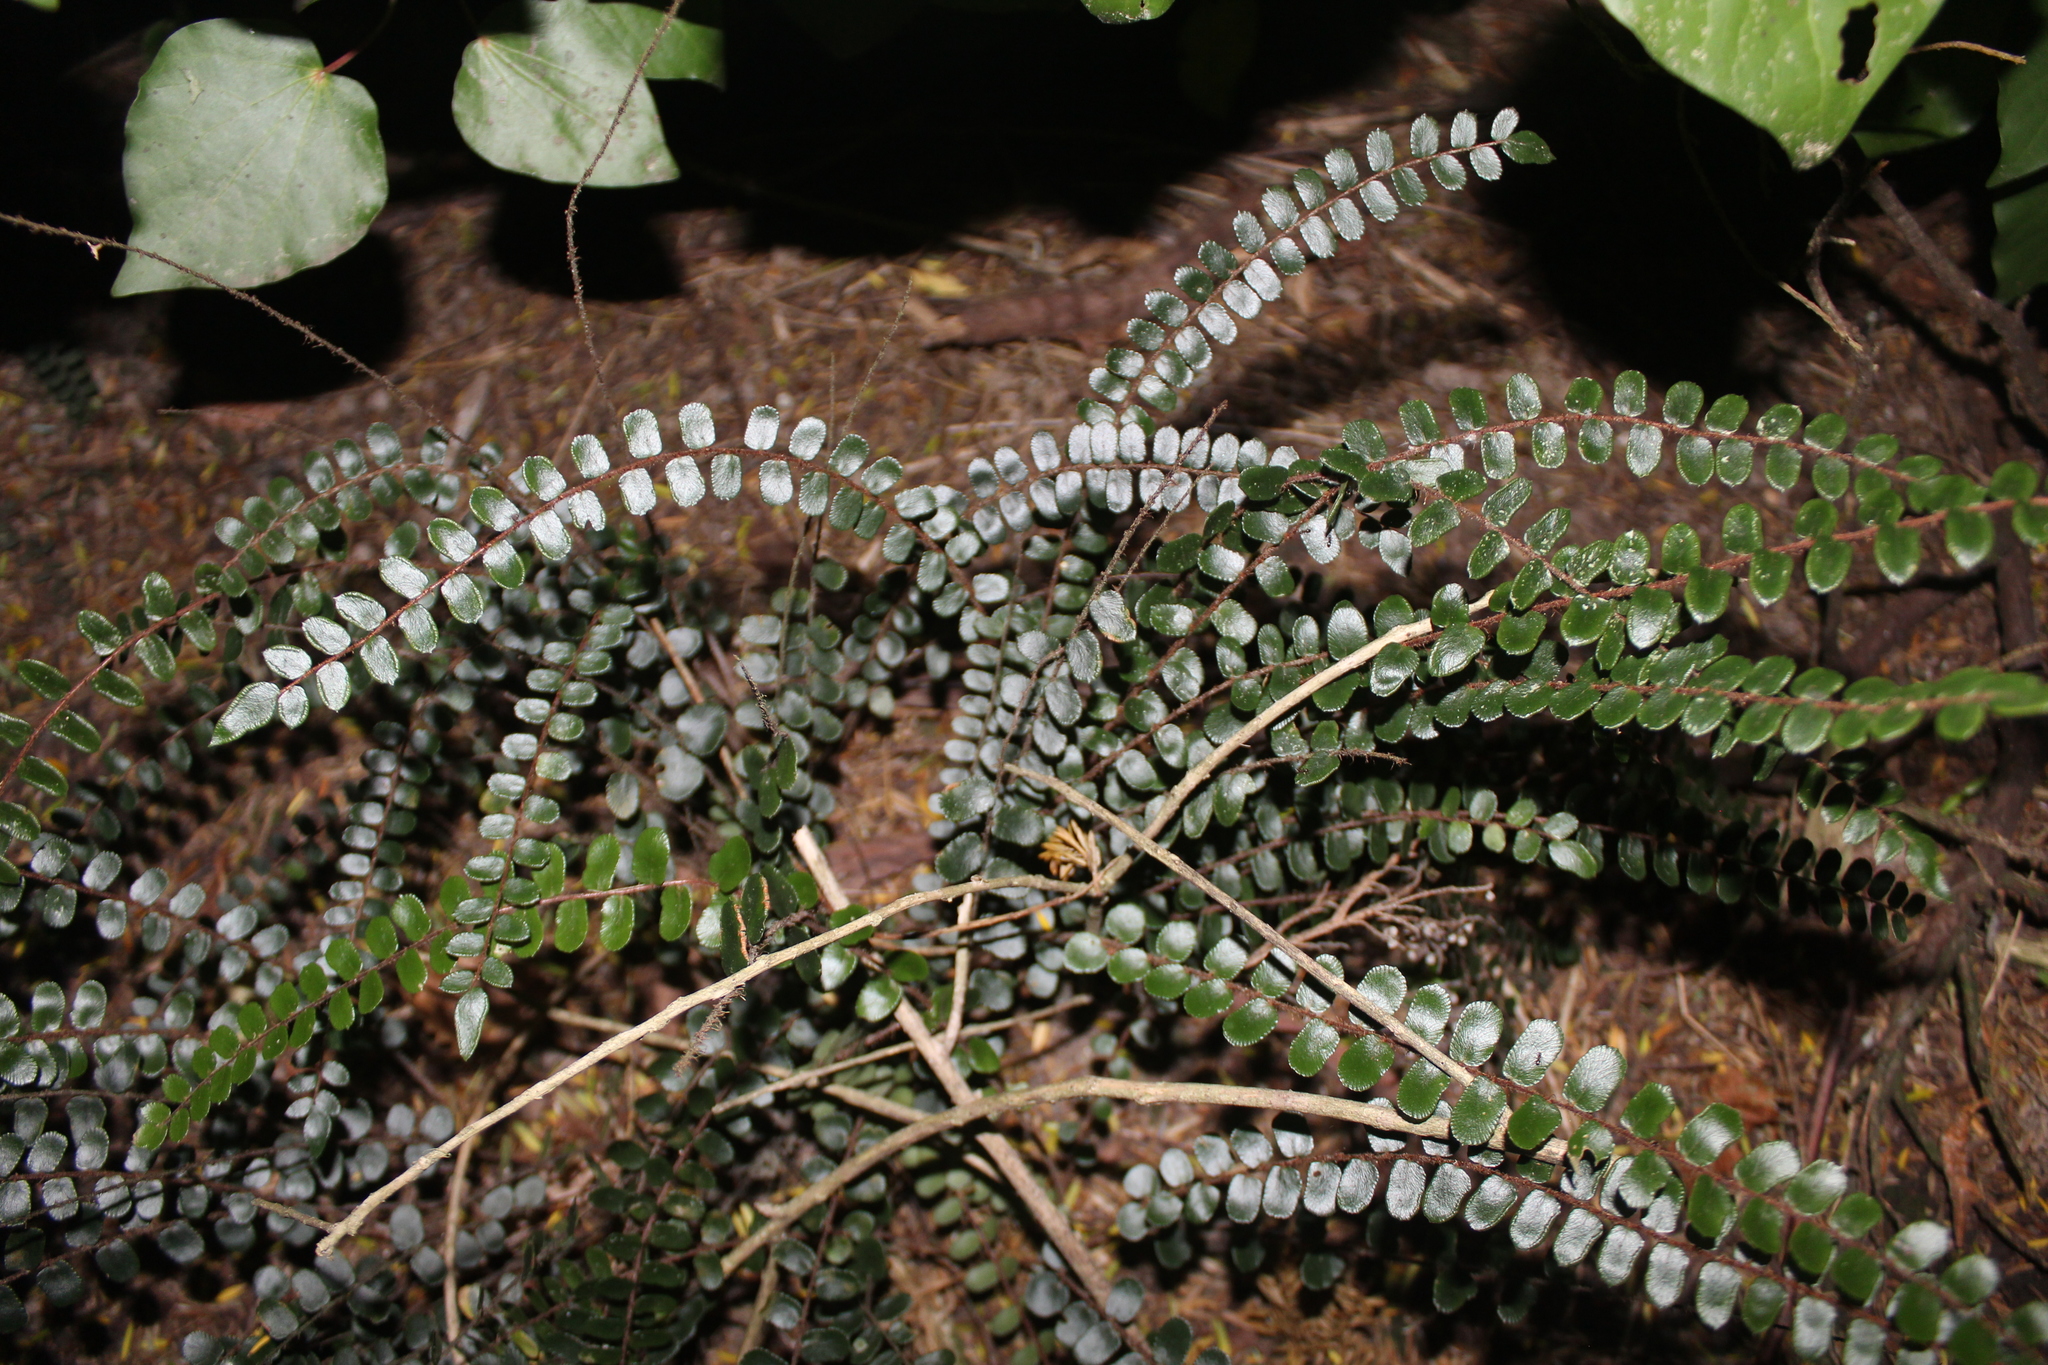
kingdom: Plantae
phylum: Tracheophyta
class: Polypodiopsida
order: Polypodiales
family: Pteridaceae
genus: Pellaea
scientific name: Pellaea rotundifolia
